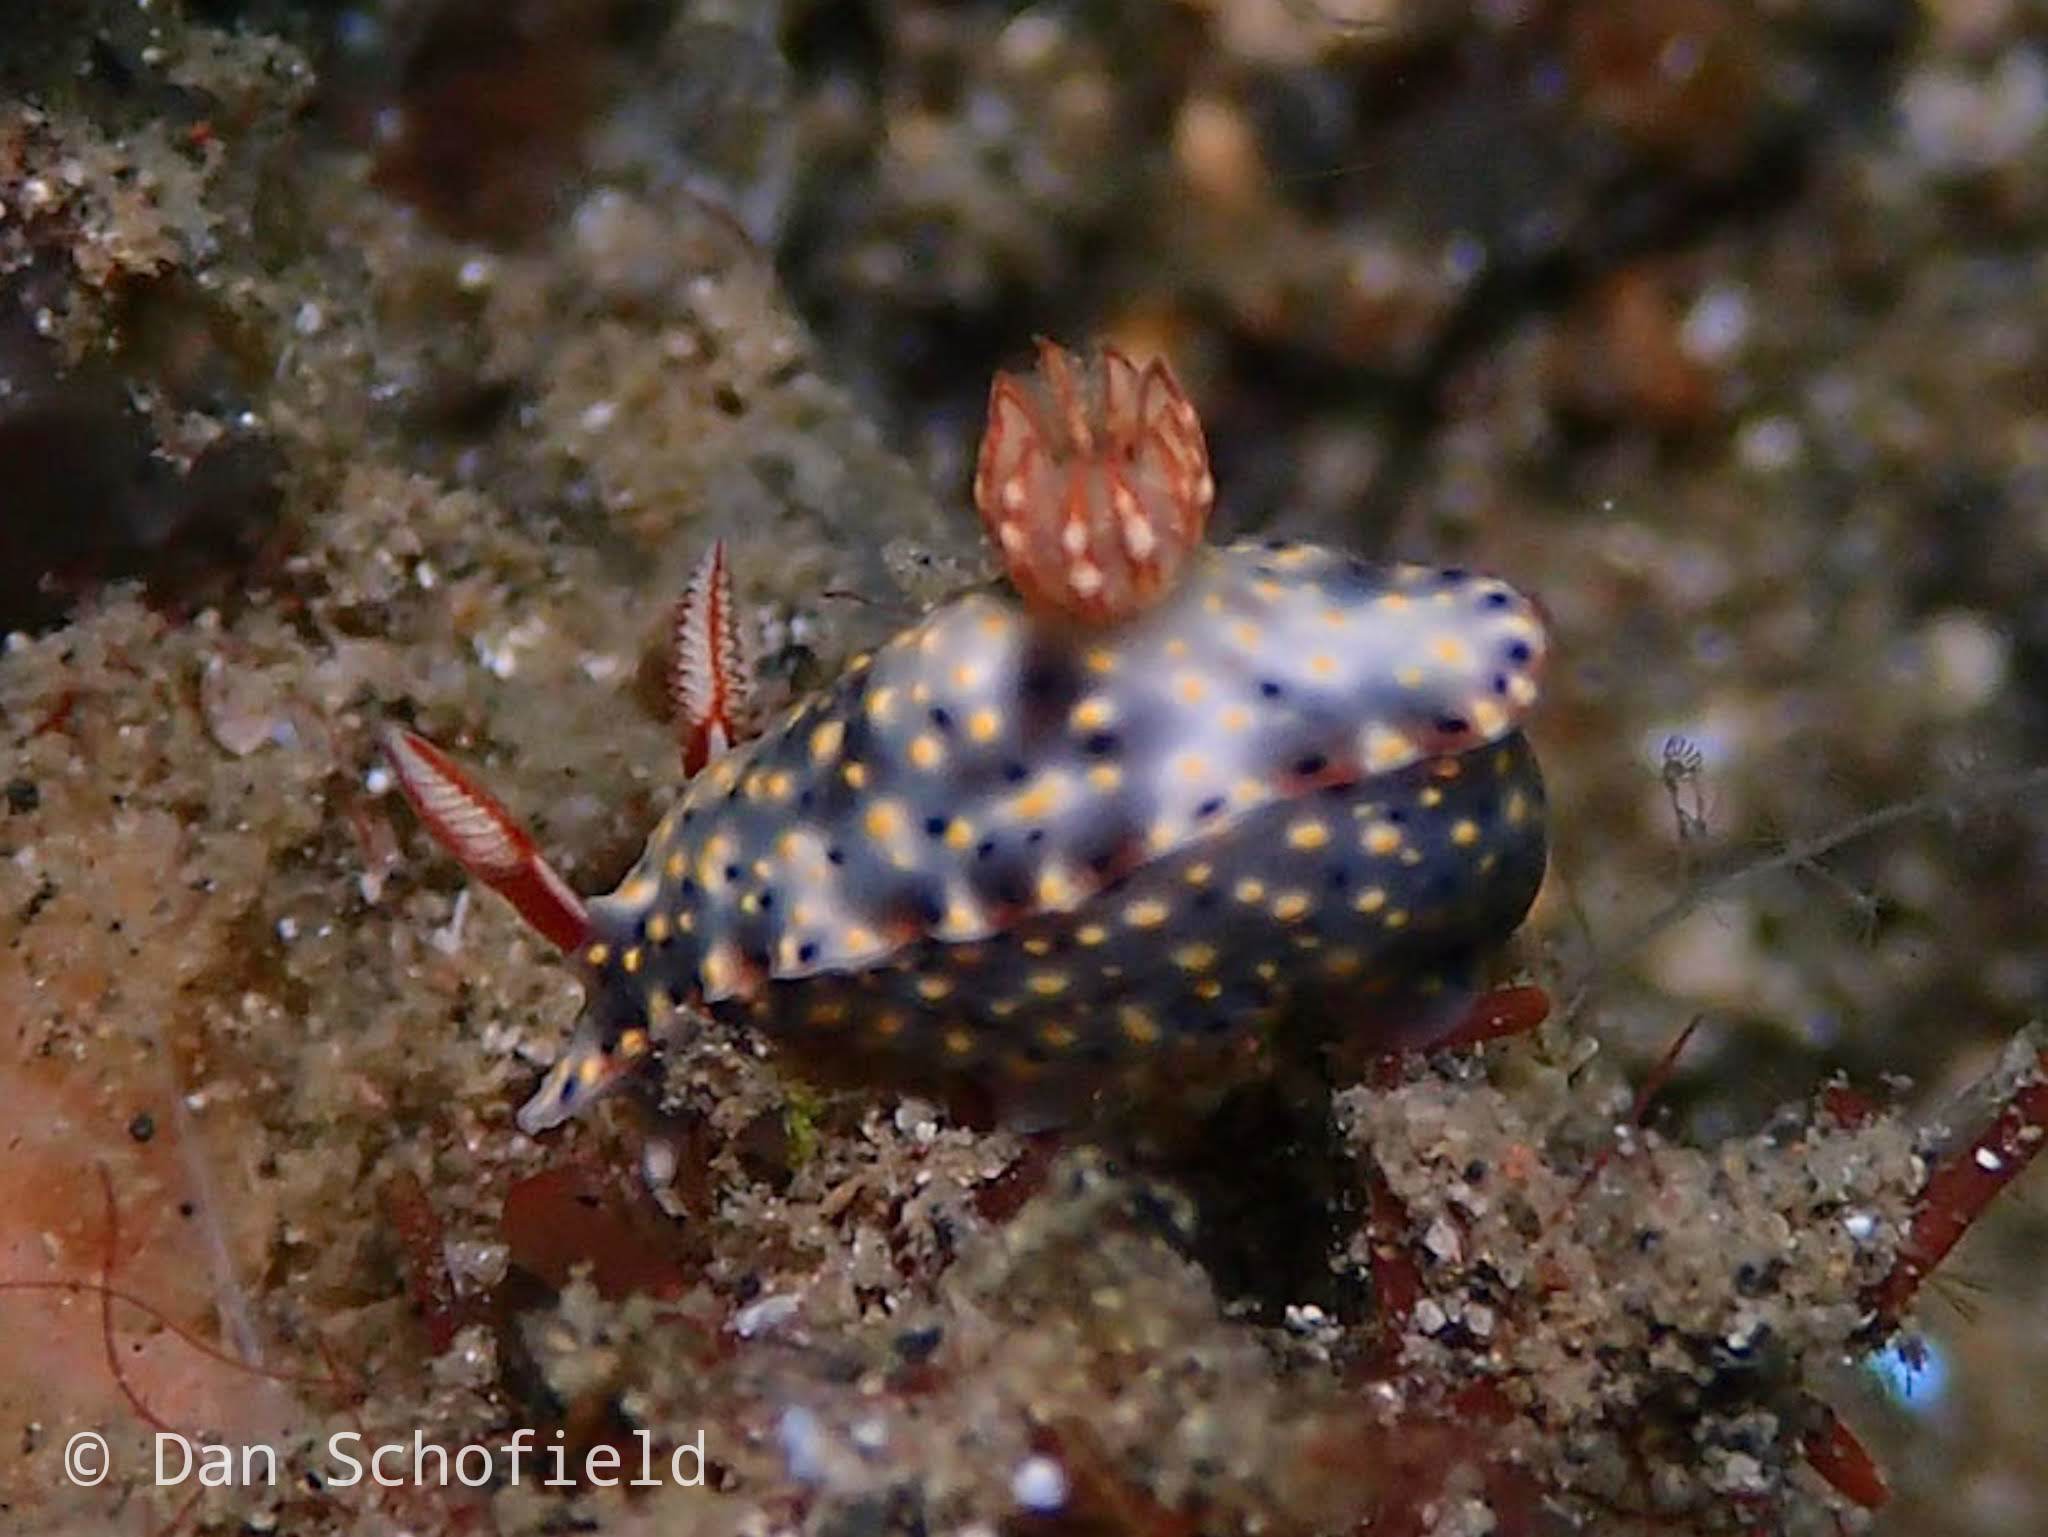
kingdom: Animalia
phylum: Mollusca
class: Gastropoda
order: Nudibranchia
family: Chromodorididae
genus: Hypselodoris
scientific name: Hypselodoris roo
